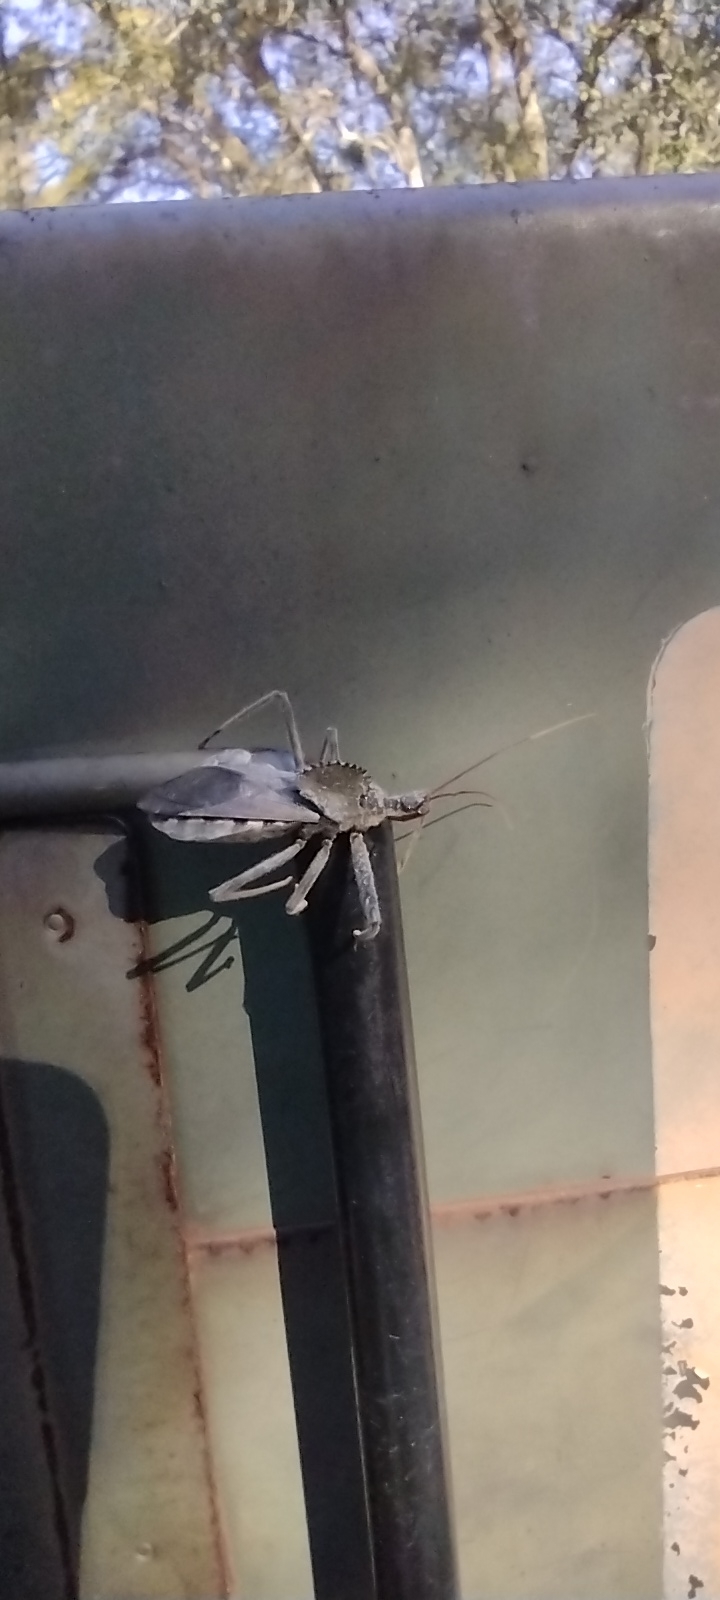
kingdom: Animalia
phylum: Arthropoda
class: Insecta
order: Hemiptera
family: Reduviidae
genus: Arilus
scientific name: Arilus cristatus
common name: North american wheel bug
